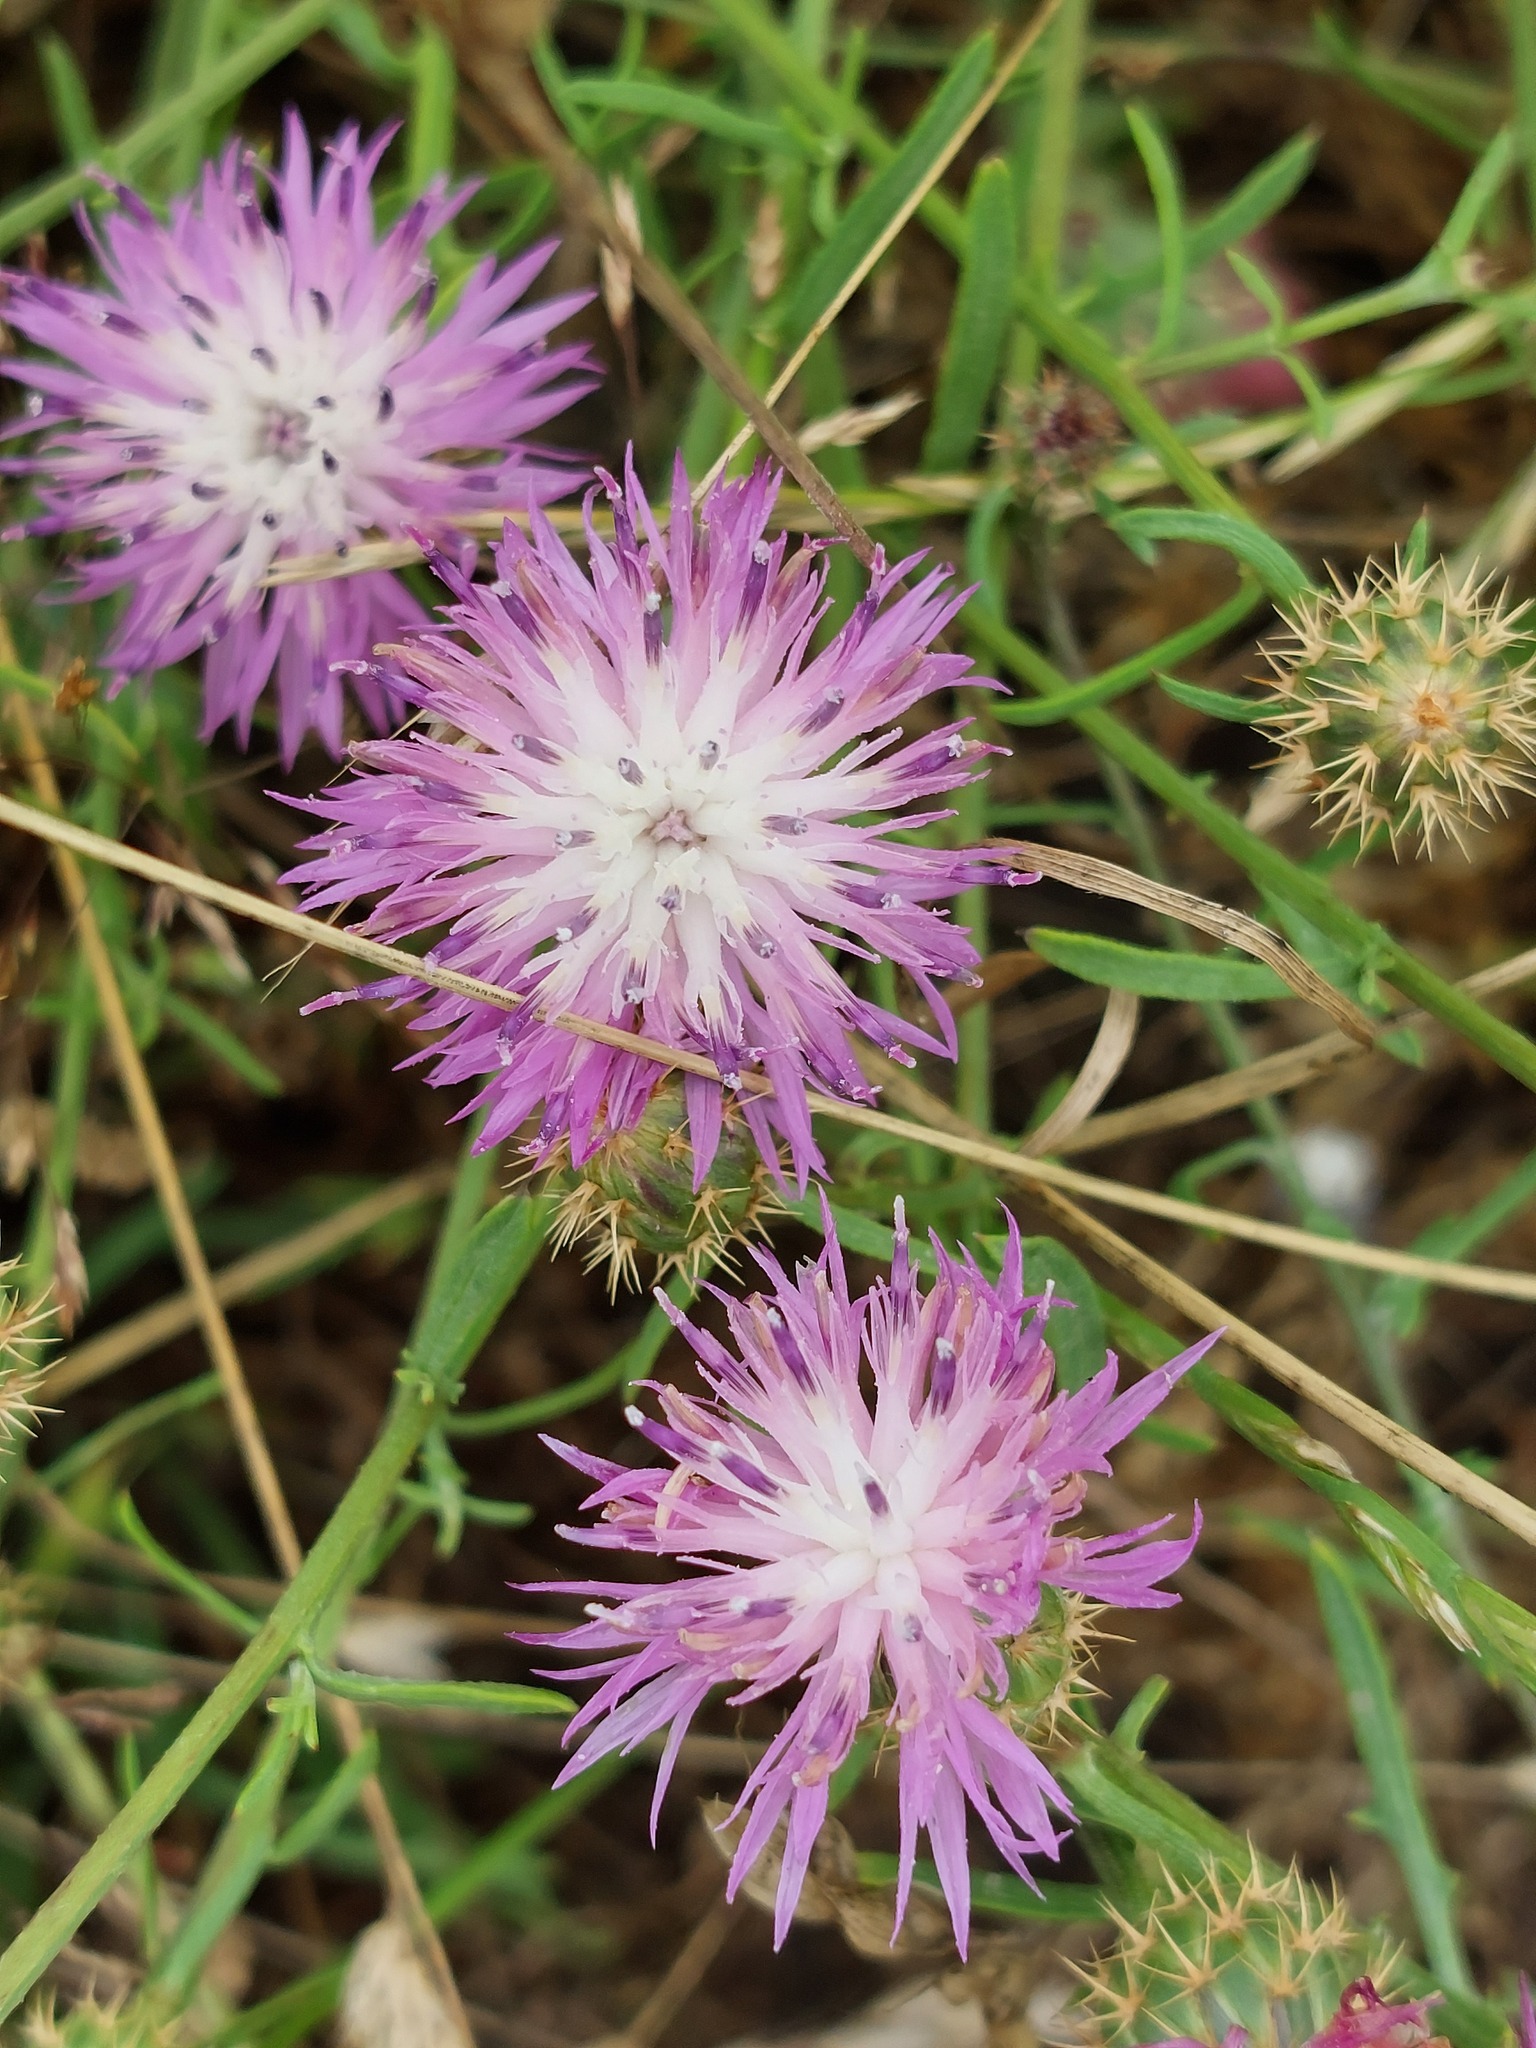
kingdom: Plantae
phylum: Tracheophyta
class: Magnoliopsida
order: Asterales
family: Asteraceae
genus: Centaurea
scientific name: Centaurea aspera
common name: Rough star-thistle
